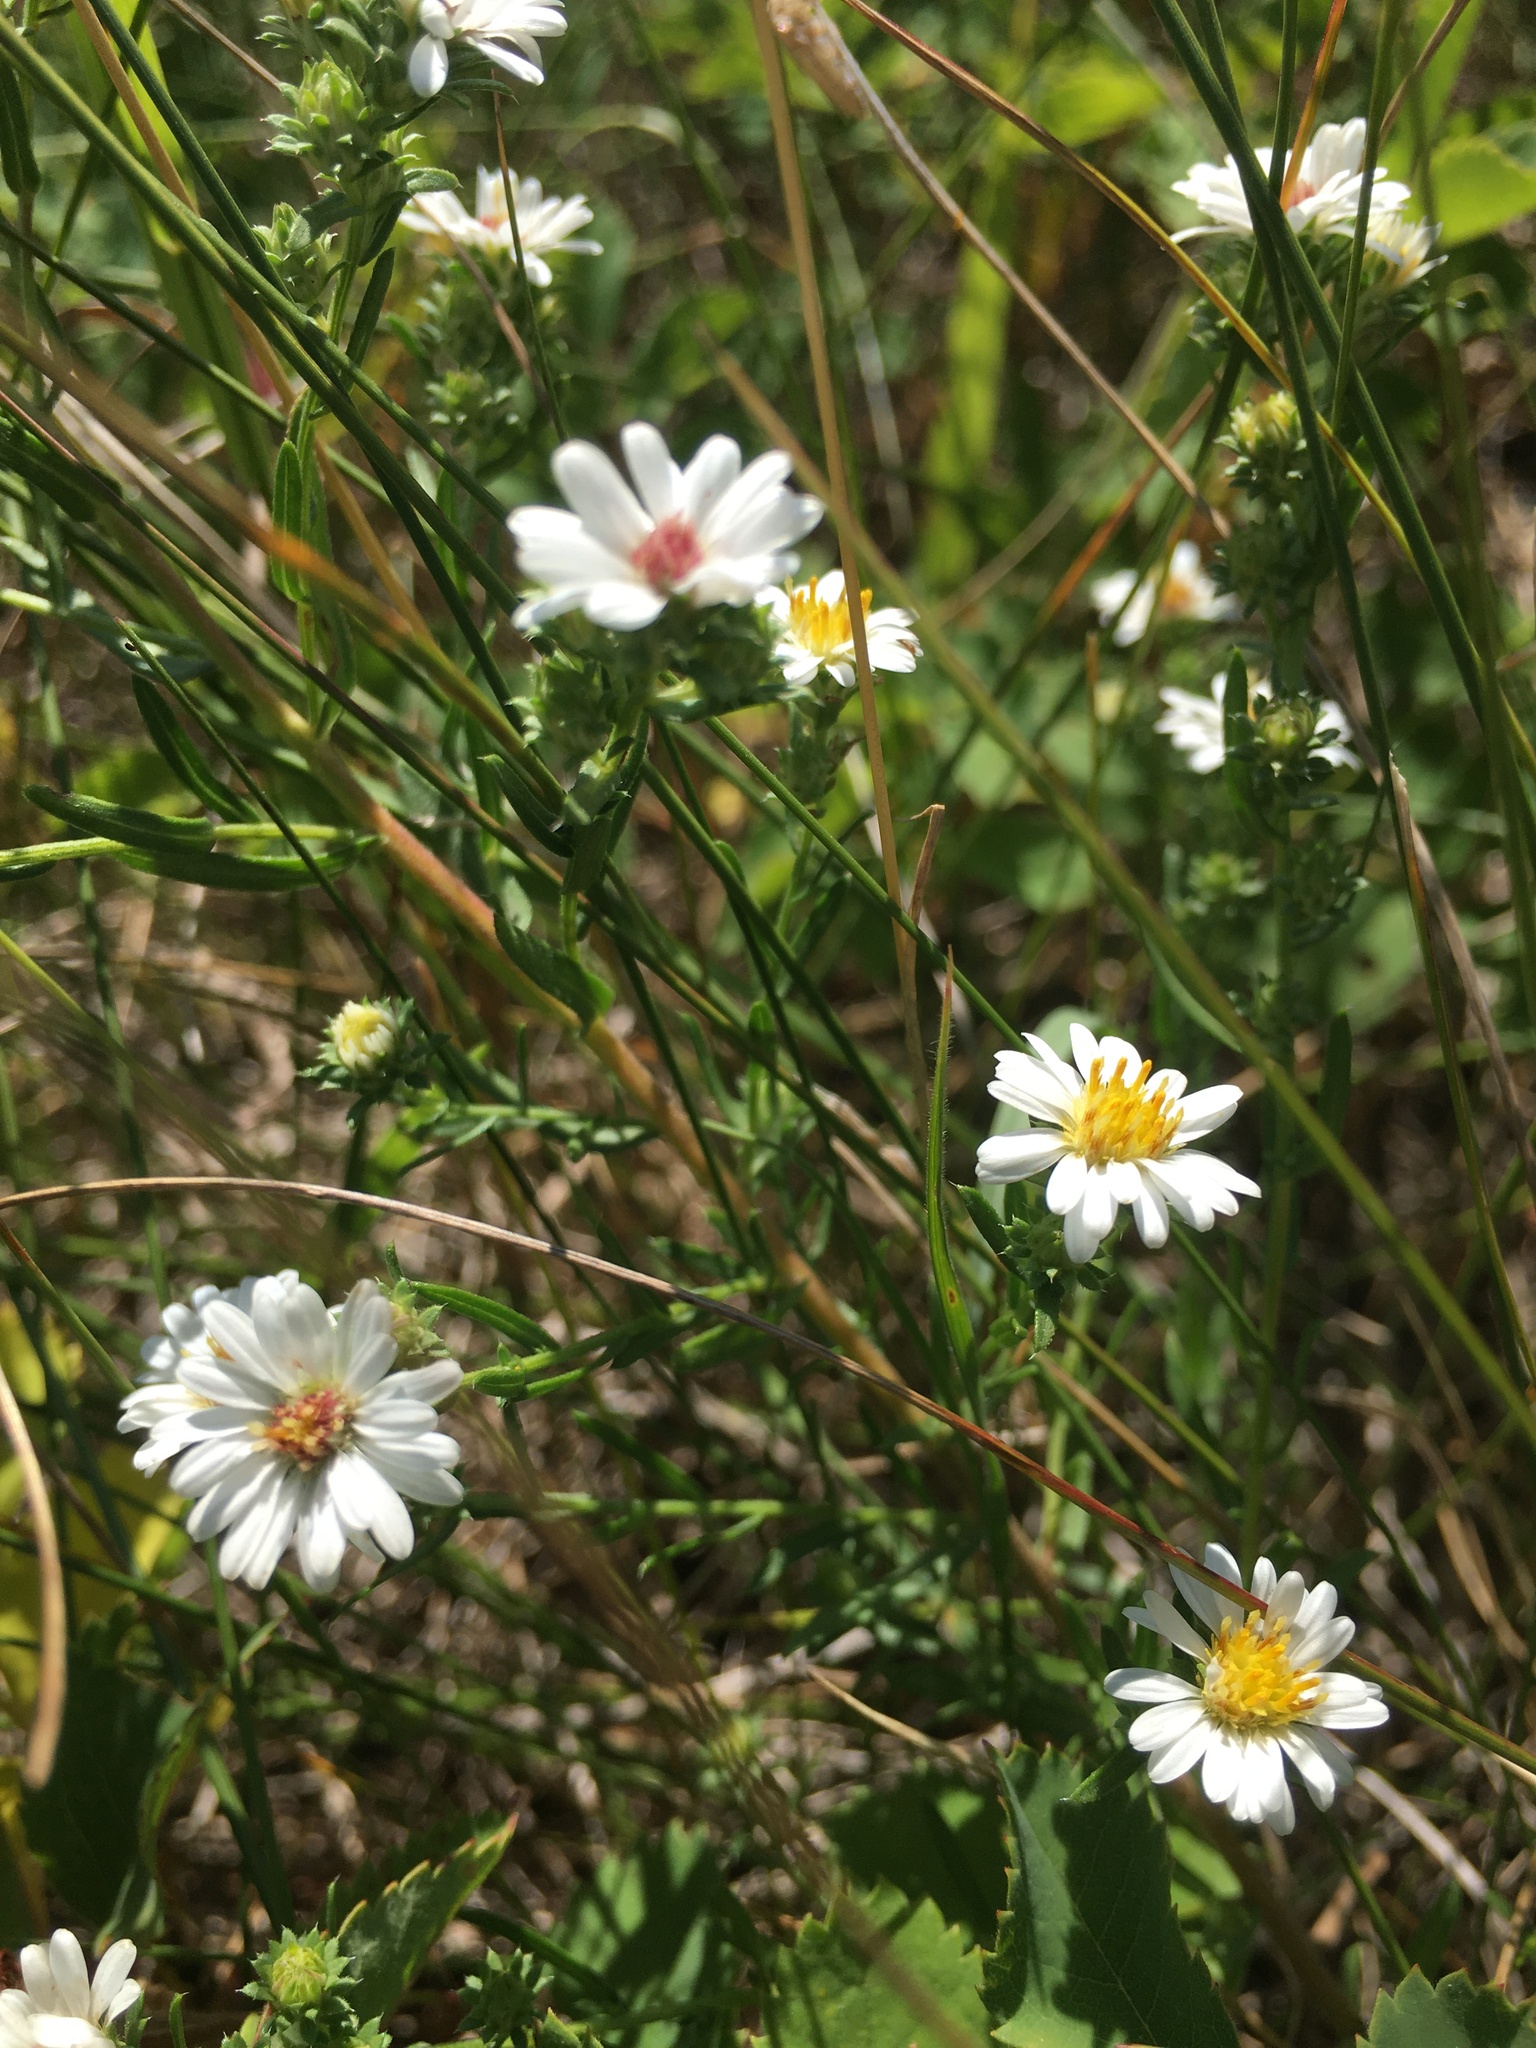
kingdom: Plantae
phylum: Tracheophyta
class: Magnoliopsida
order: Asterales
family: Asteraceae
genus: Symphyotrichum
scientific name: Symphyotrichum ericoides
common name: Heath aster
